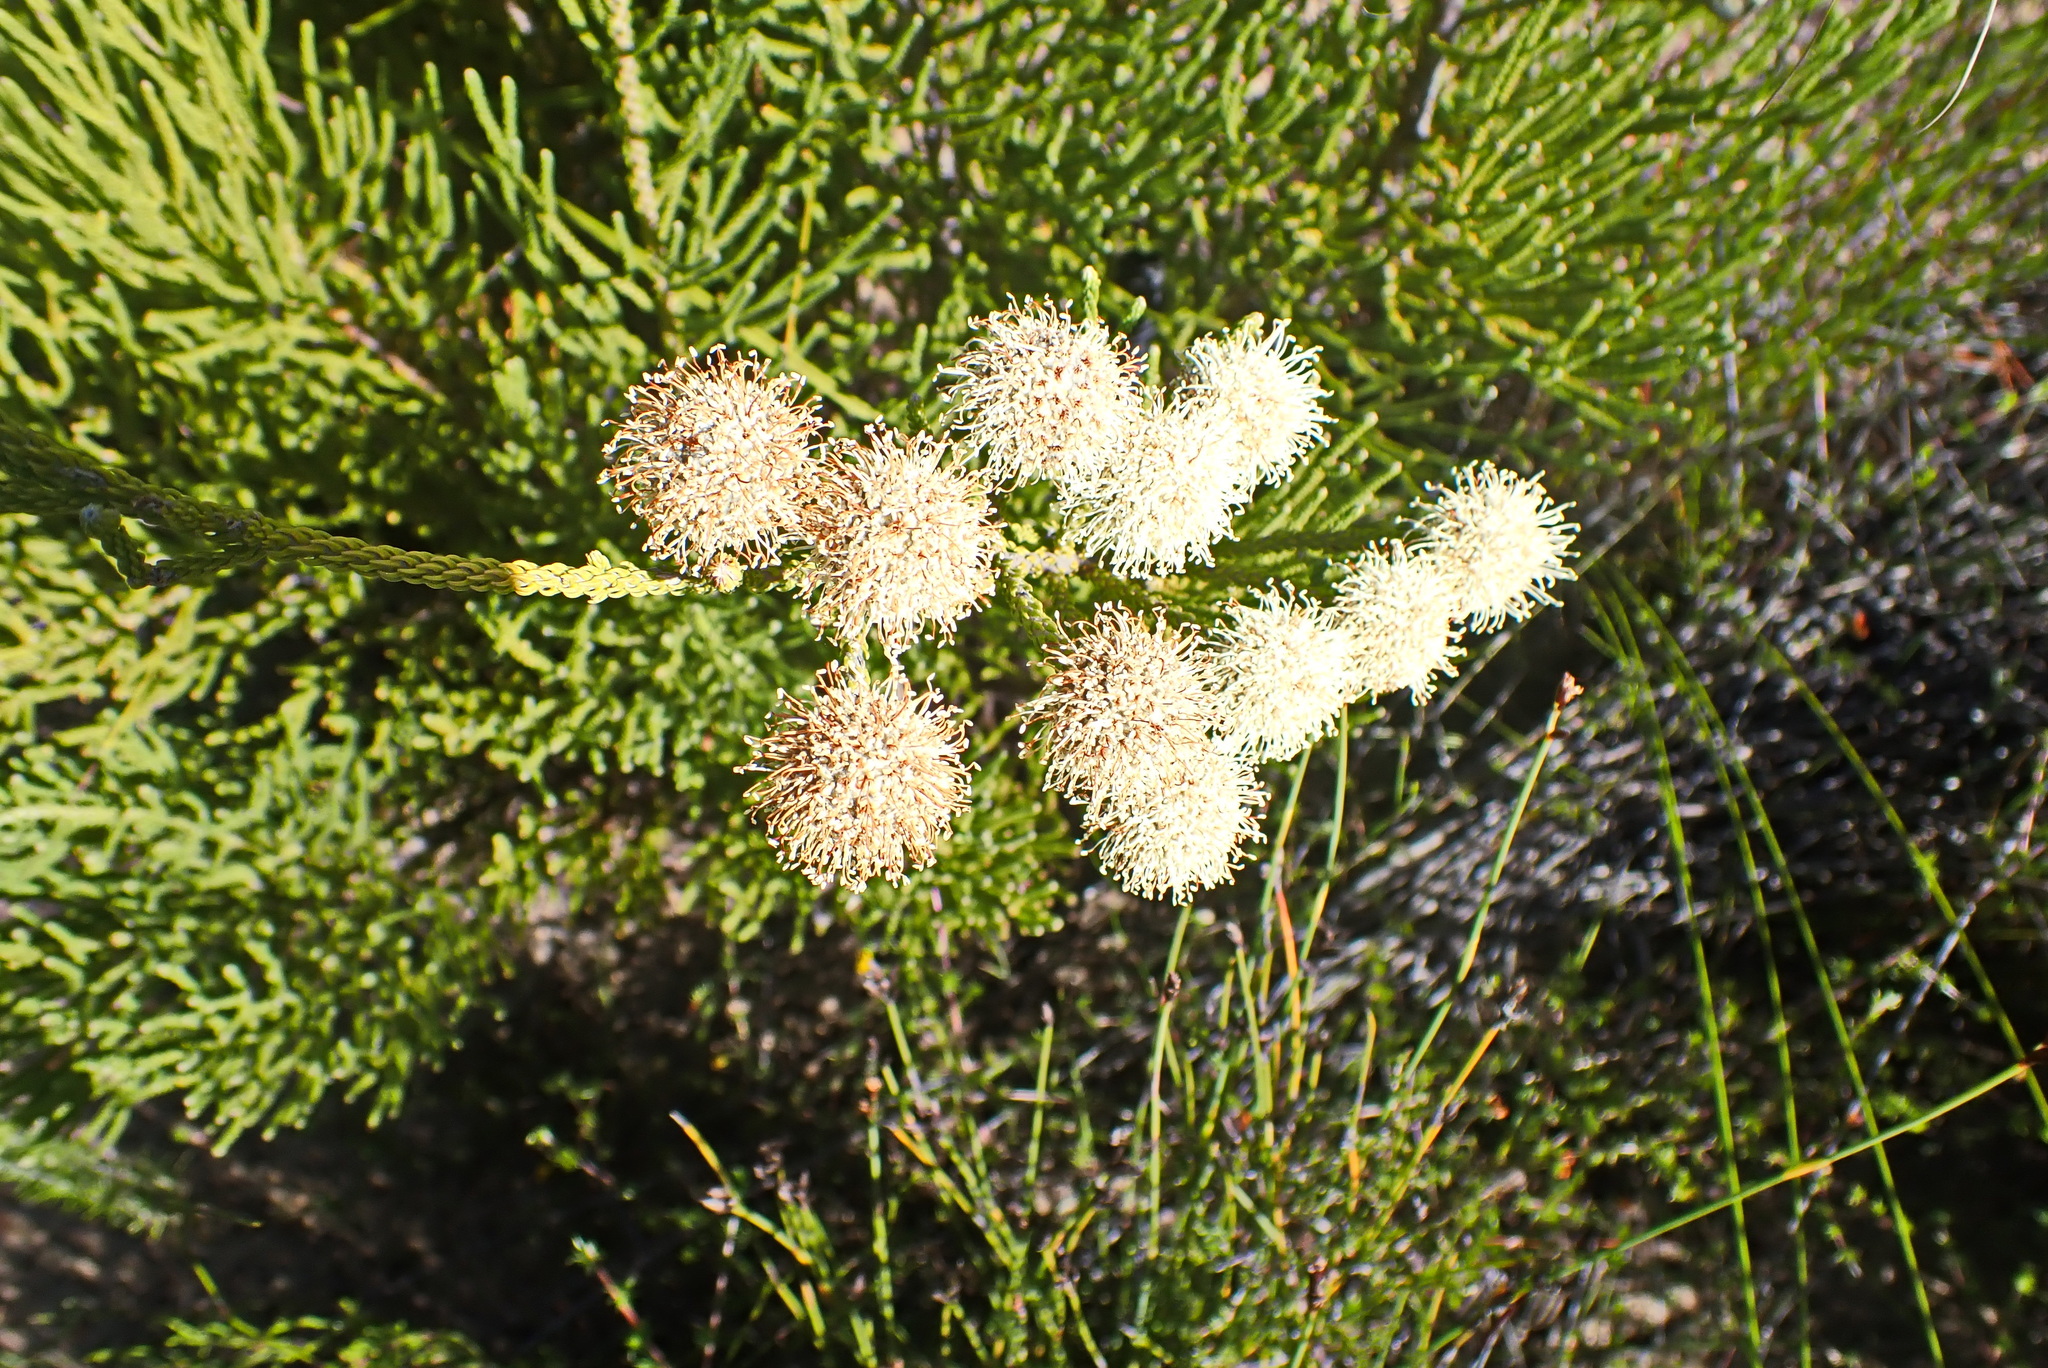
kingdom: Plantae
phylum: Tracheophyta
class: Magnoliopsida
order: Bruniales
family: Bruniaceae
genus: Brunia
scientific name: Brunia noduliflora
